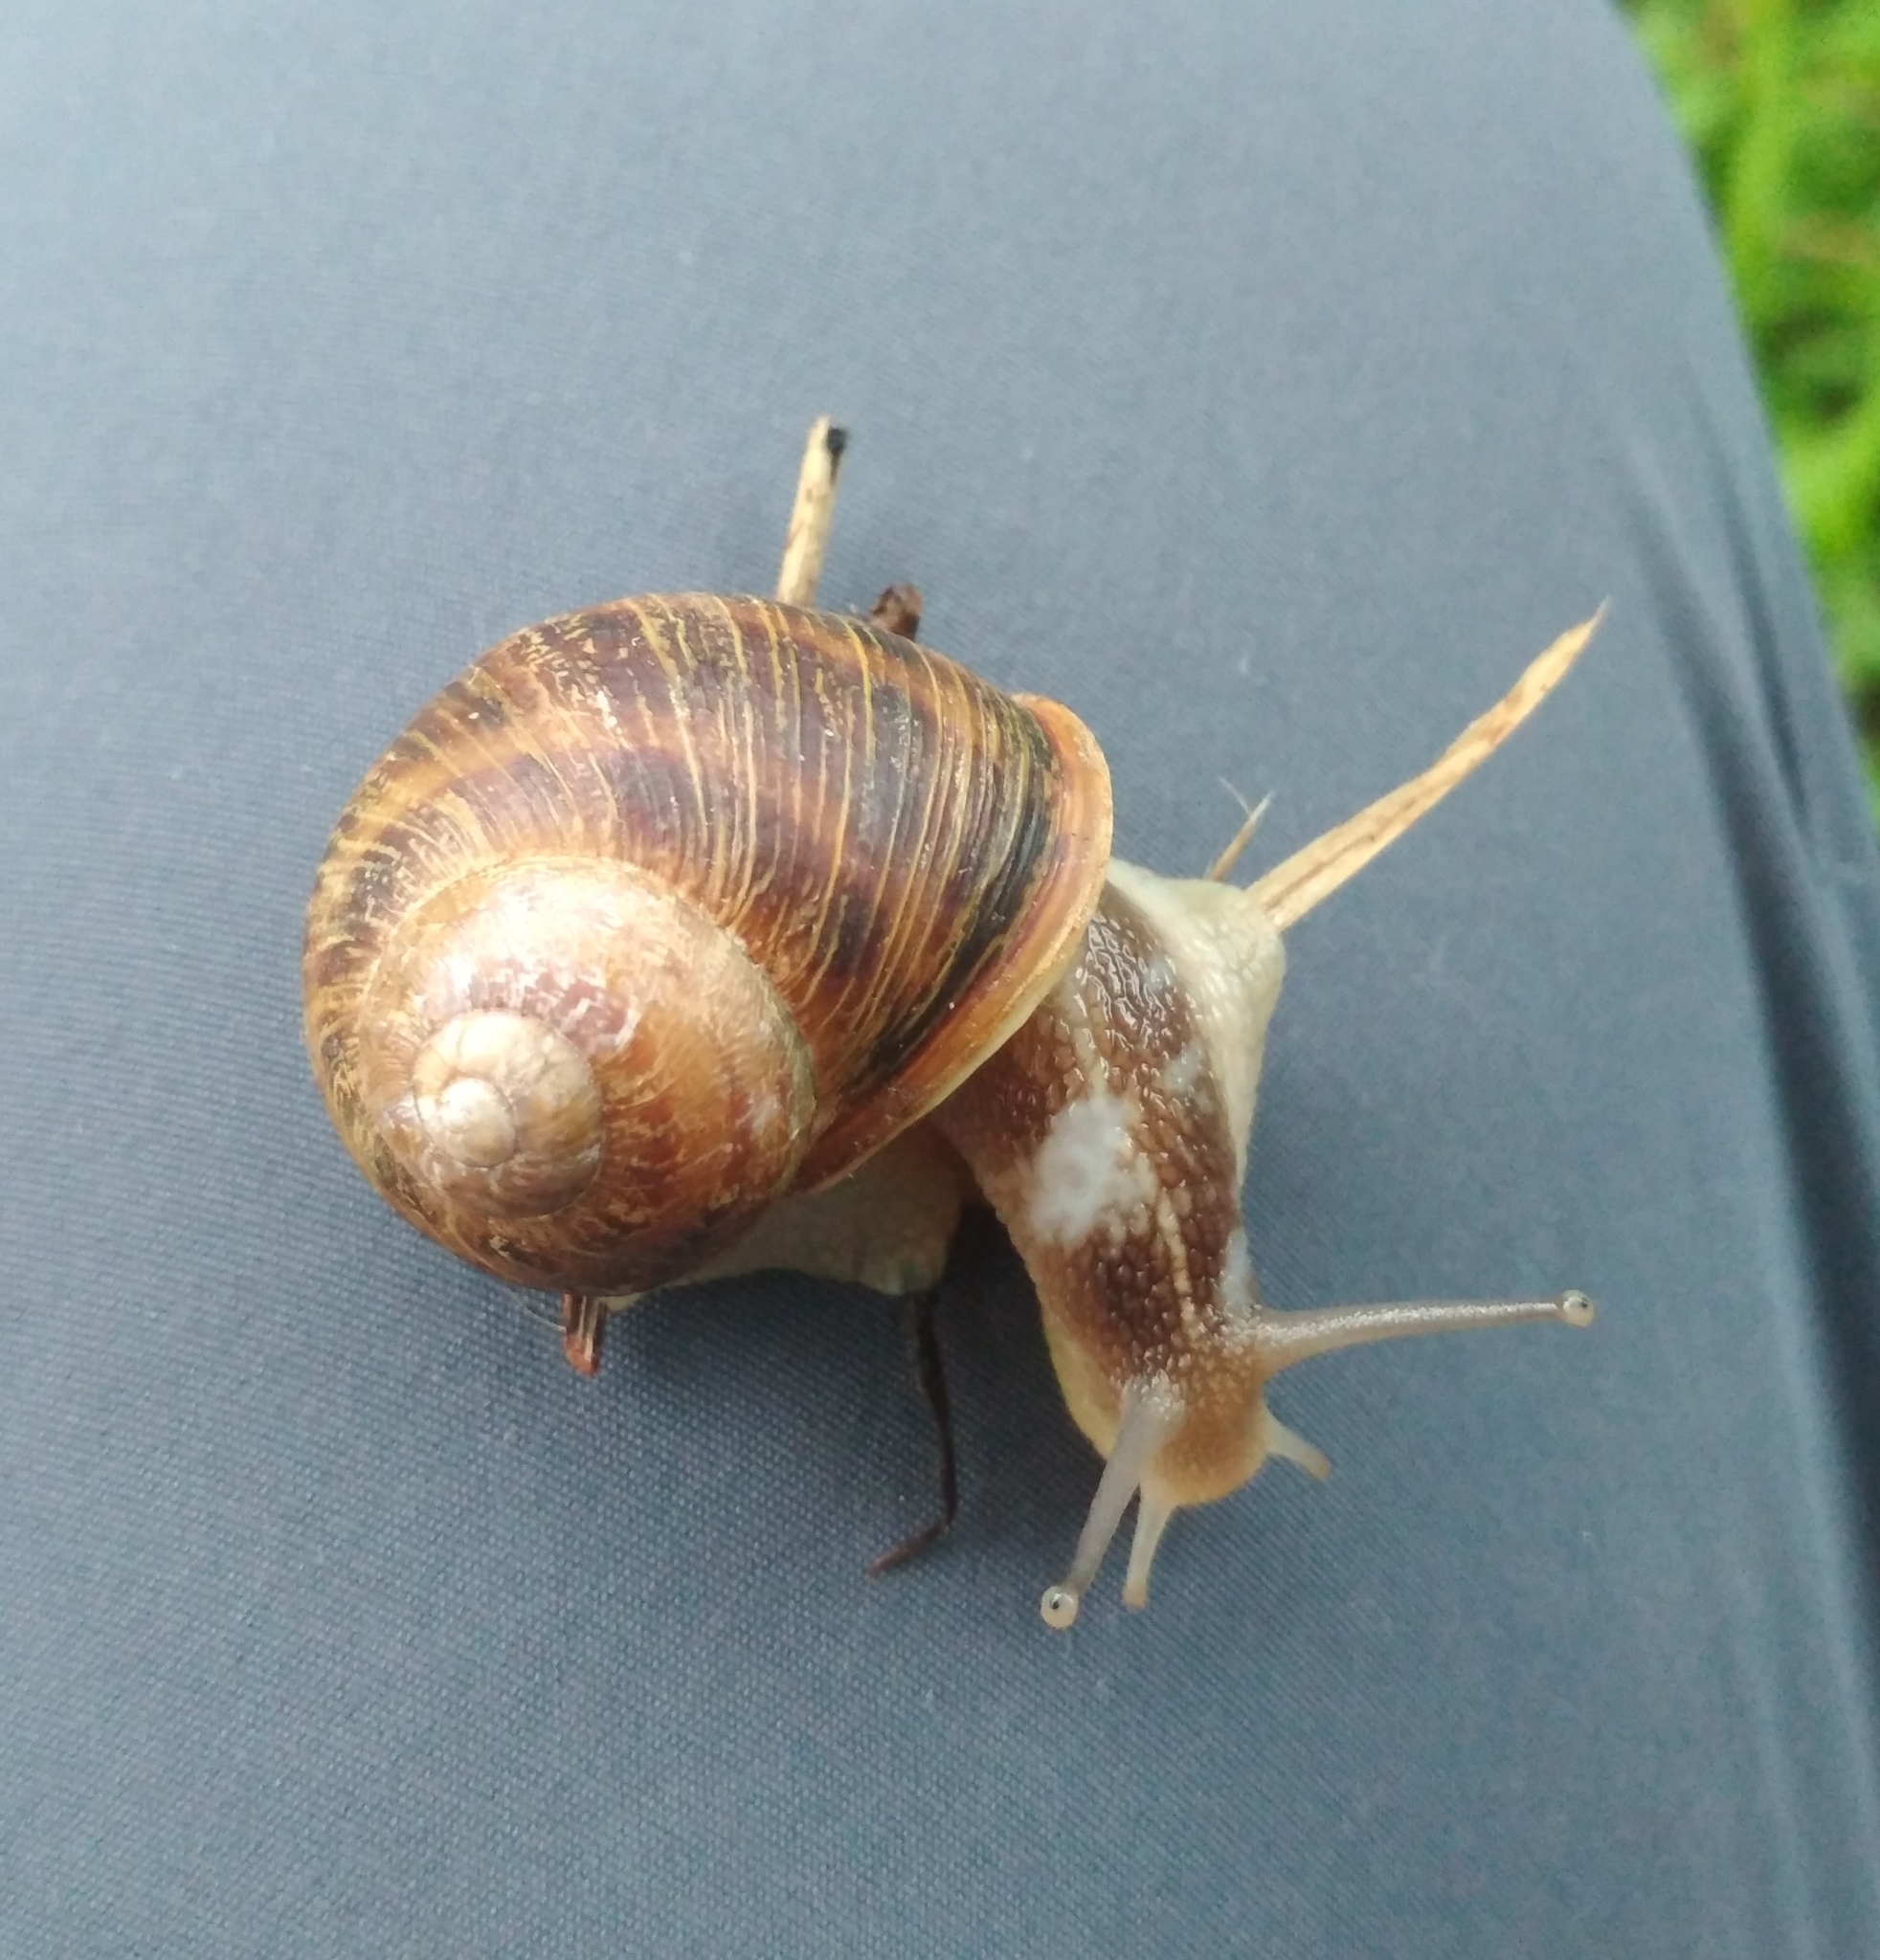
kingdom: Animalia
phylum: Mollusca
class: Gastropoda
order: Stylommatophora
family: Helicidae
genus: Cornu
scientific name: Cornu aspersum
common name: Brown garden snail
